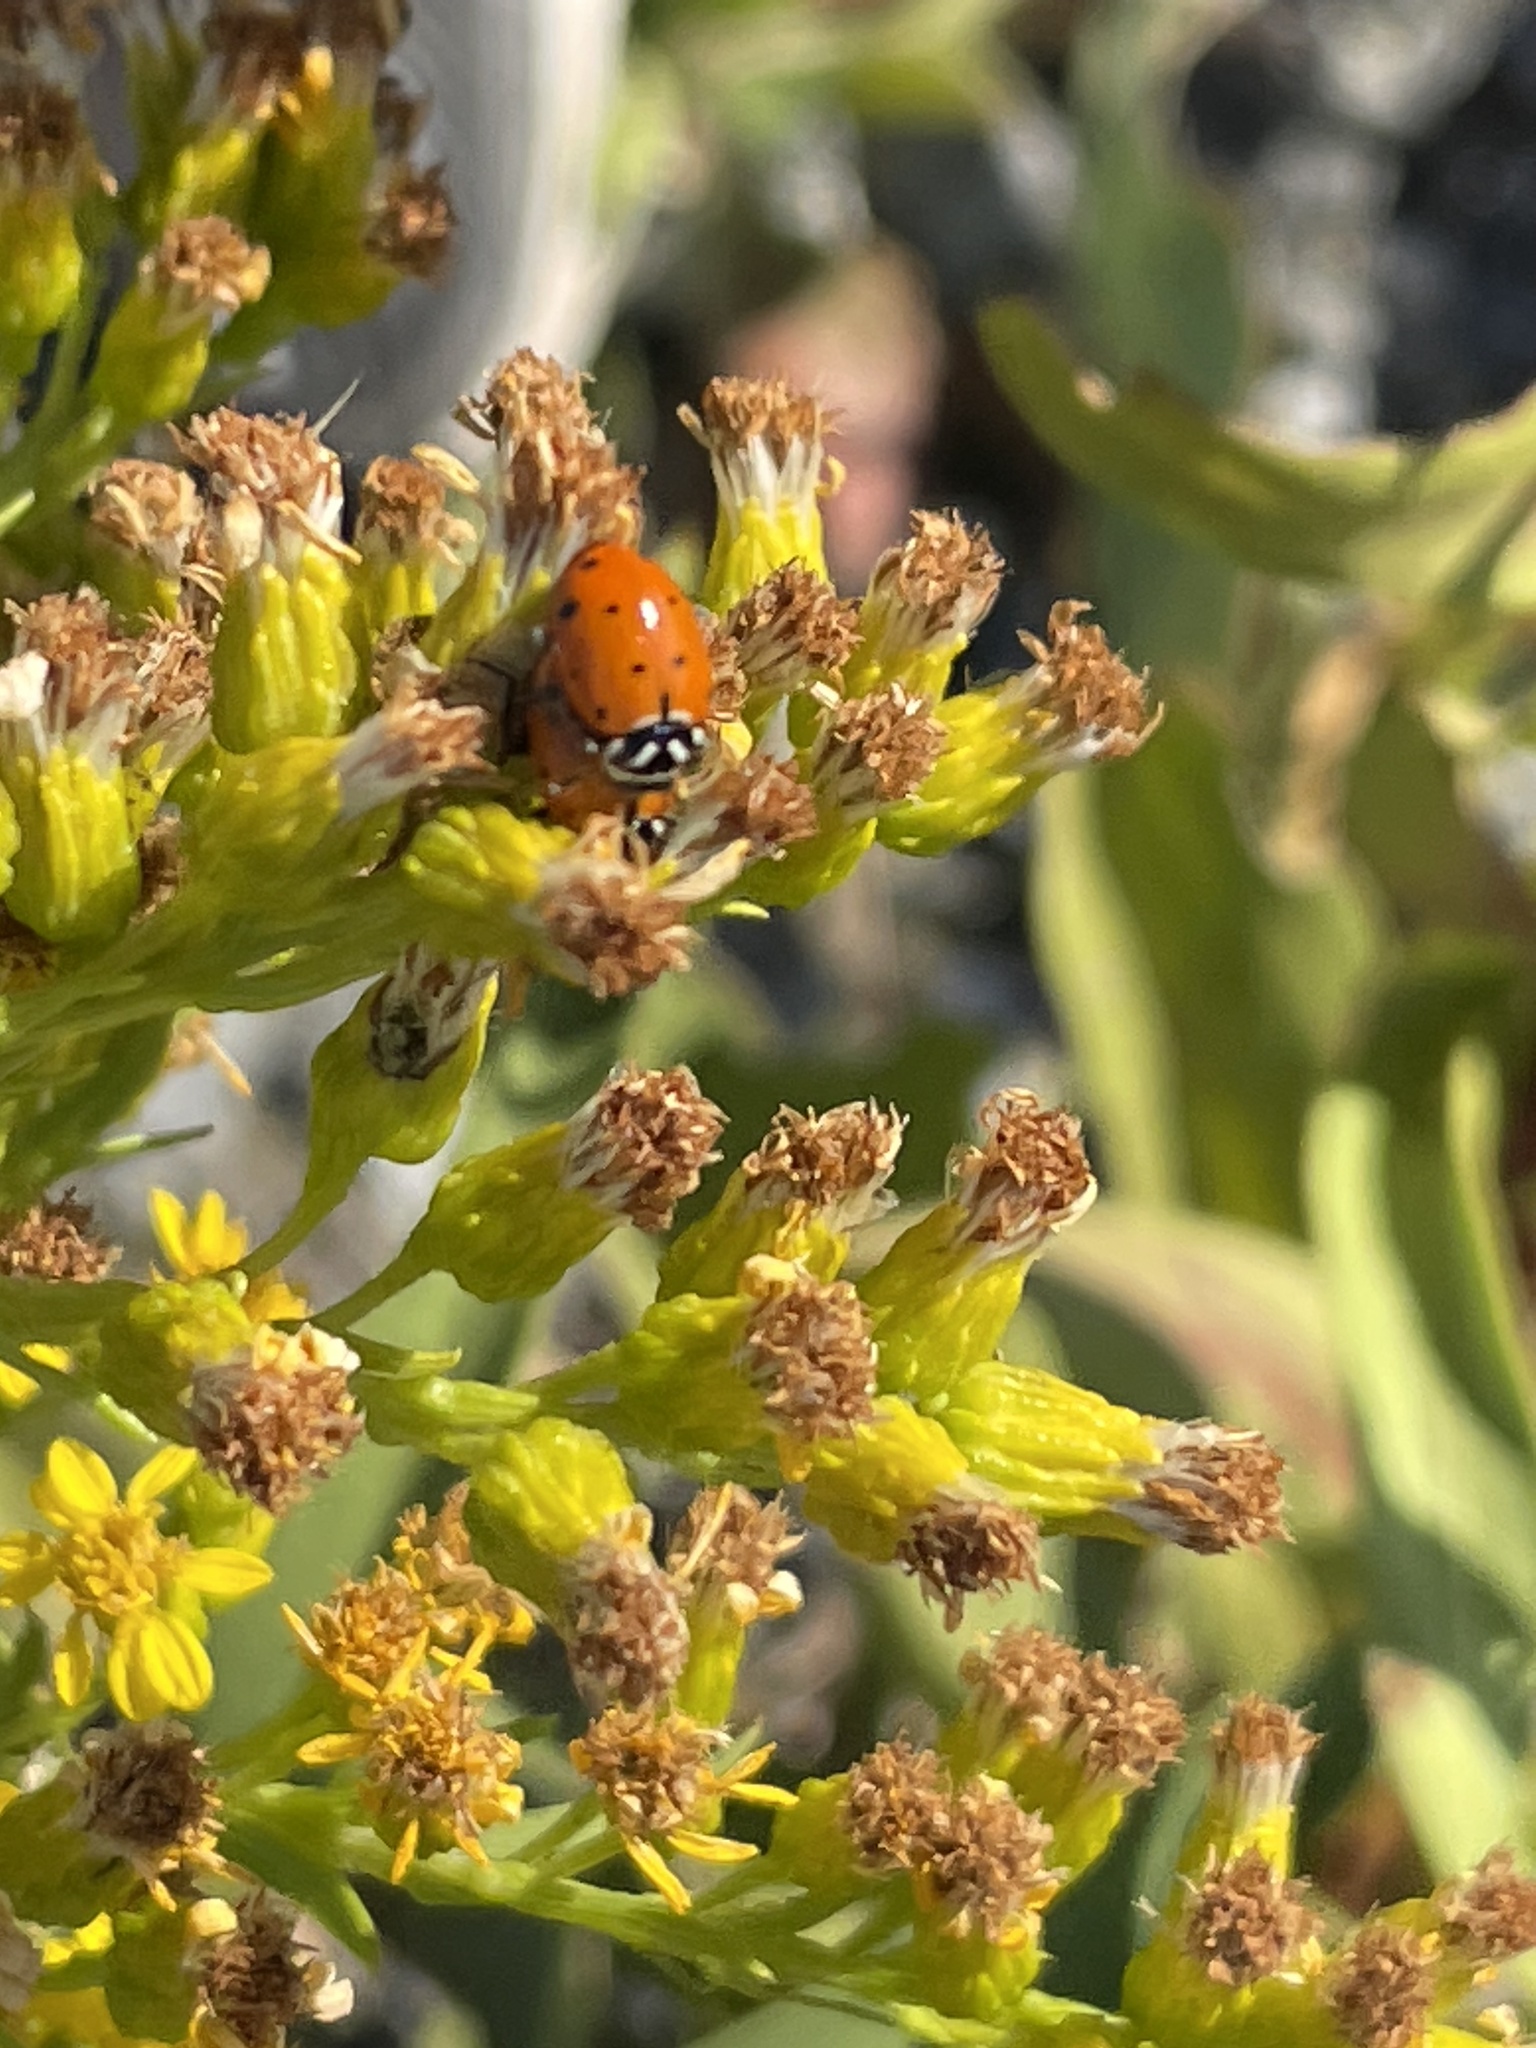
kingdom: Animalia
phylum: Arthropoda
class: Insecta
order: Coleoptera
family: Coccinellidae
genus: Hippodamia
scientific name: Hippodamia convergens
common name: Convergent lady beetle
